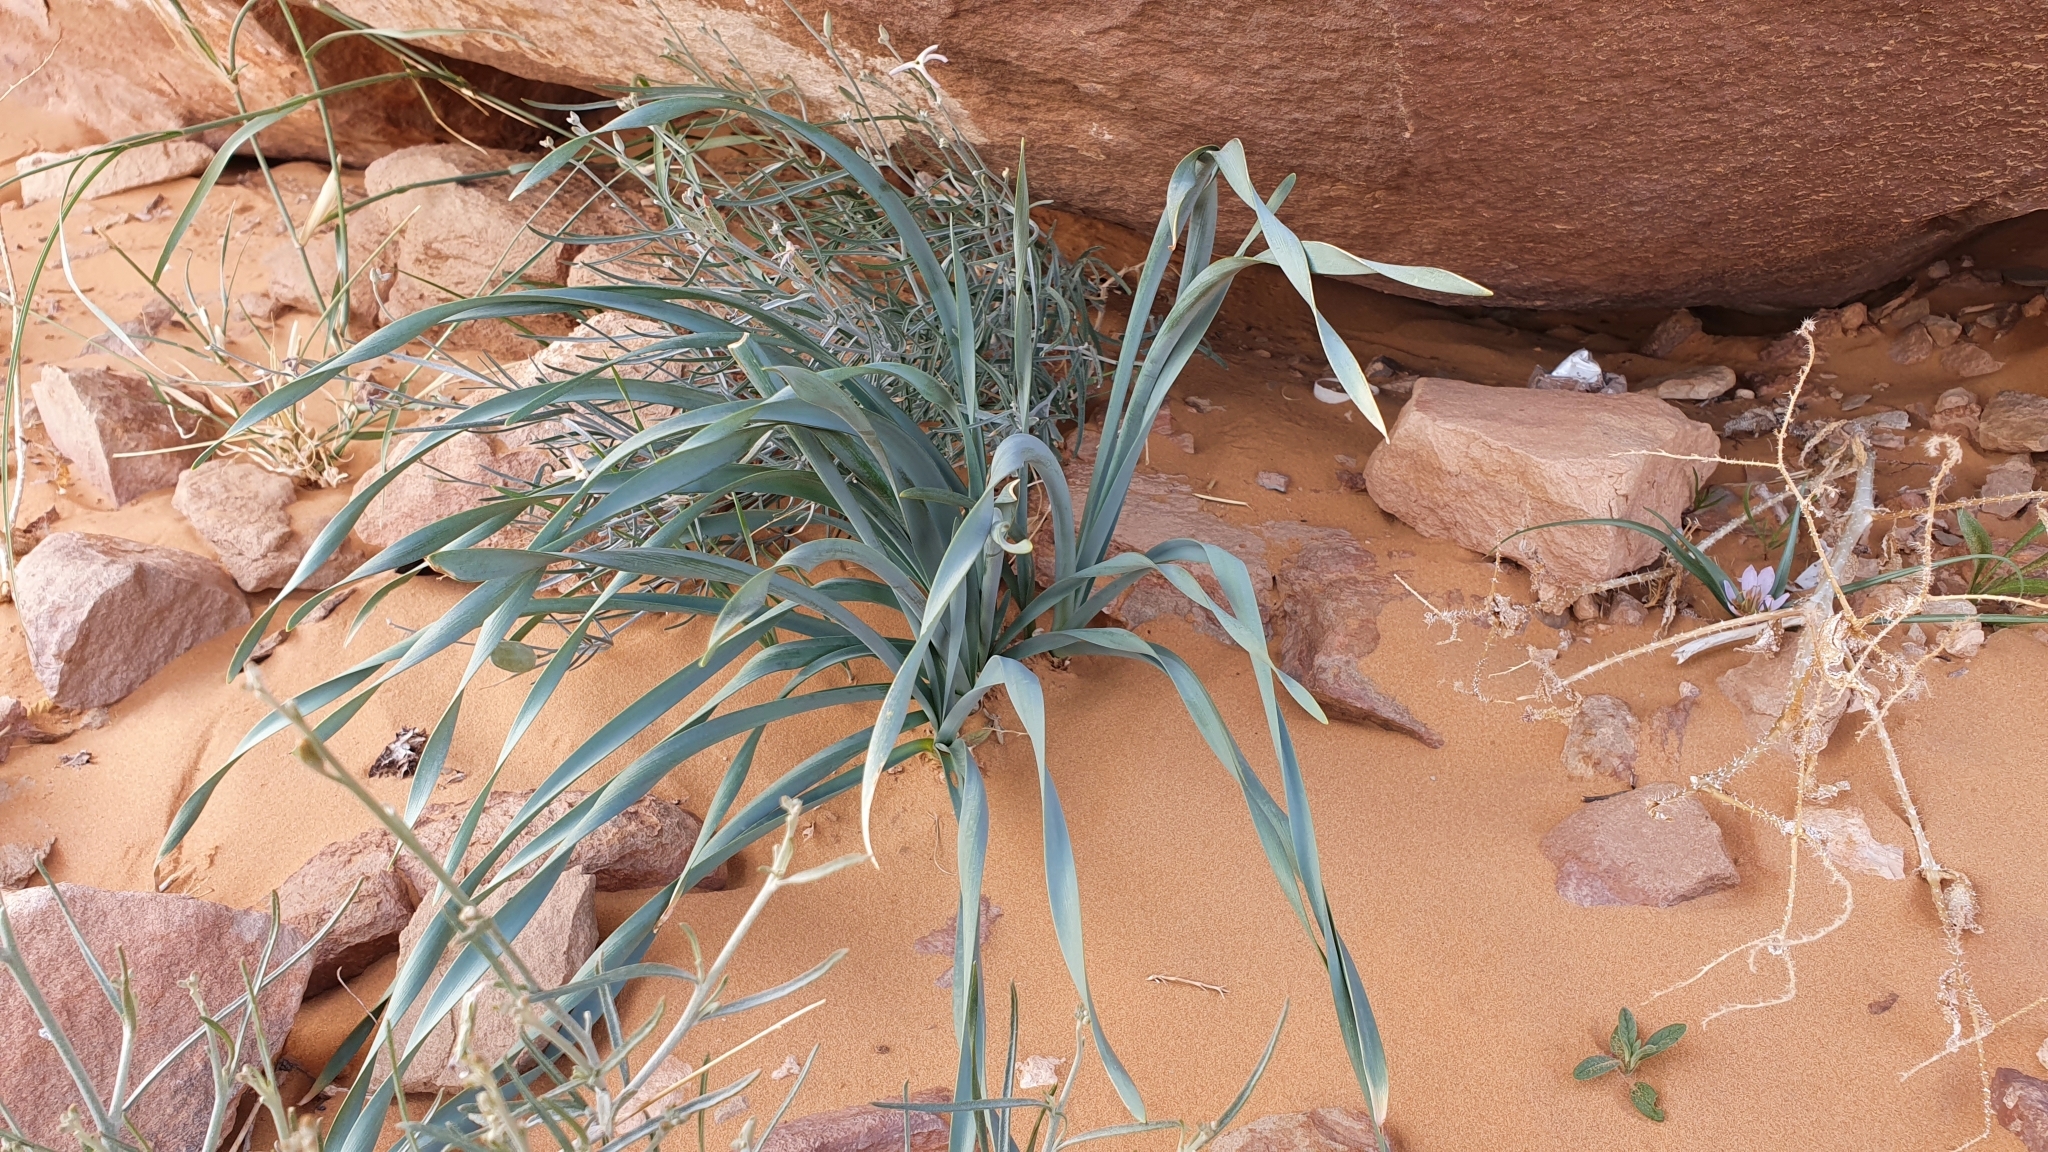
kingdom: Plantae
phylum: Tracheophyta
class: Liliopsida
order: Asparagales
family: Amaryllidaceae
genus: Pancratium
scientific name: Pancratium trianthum
